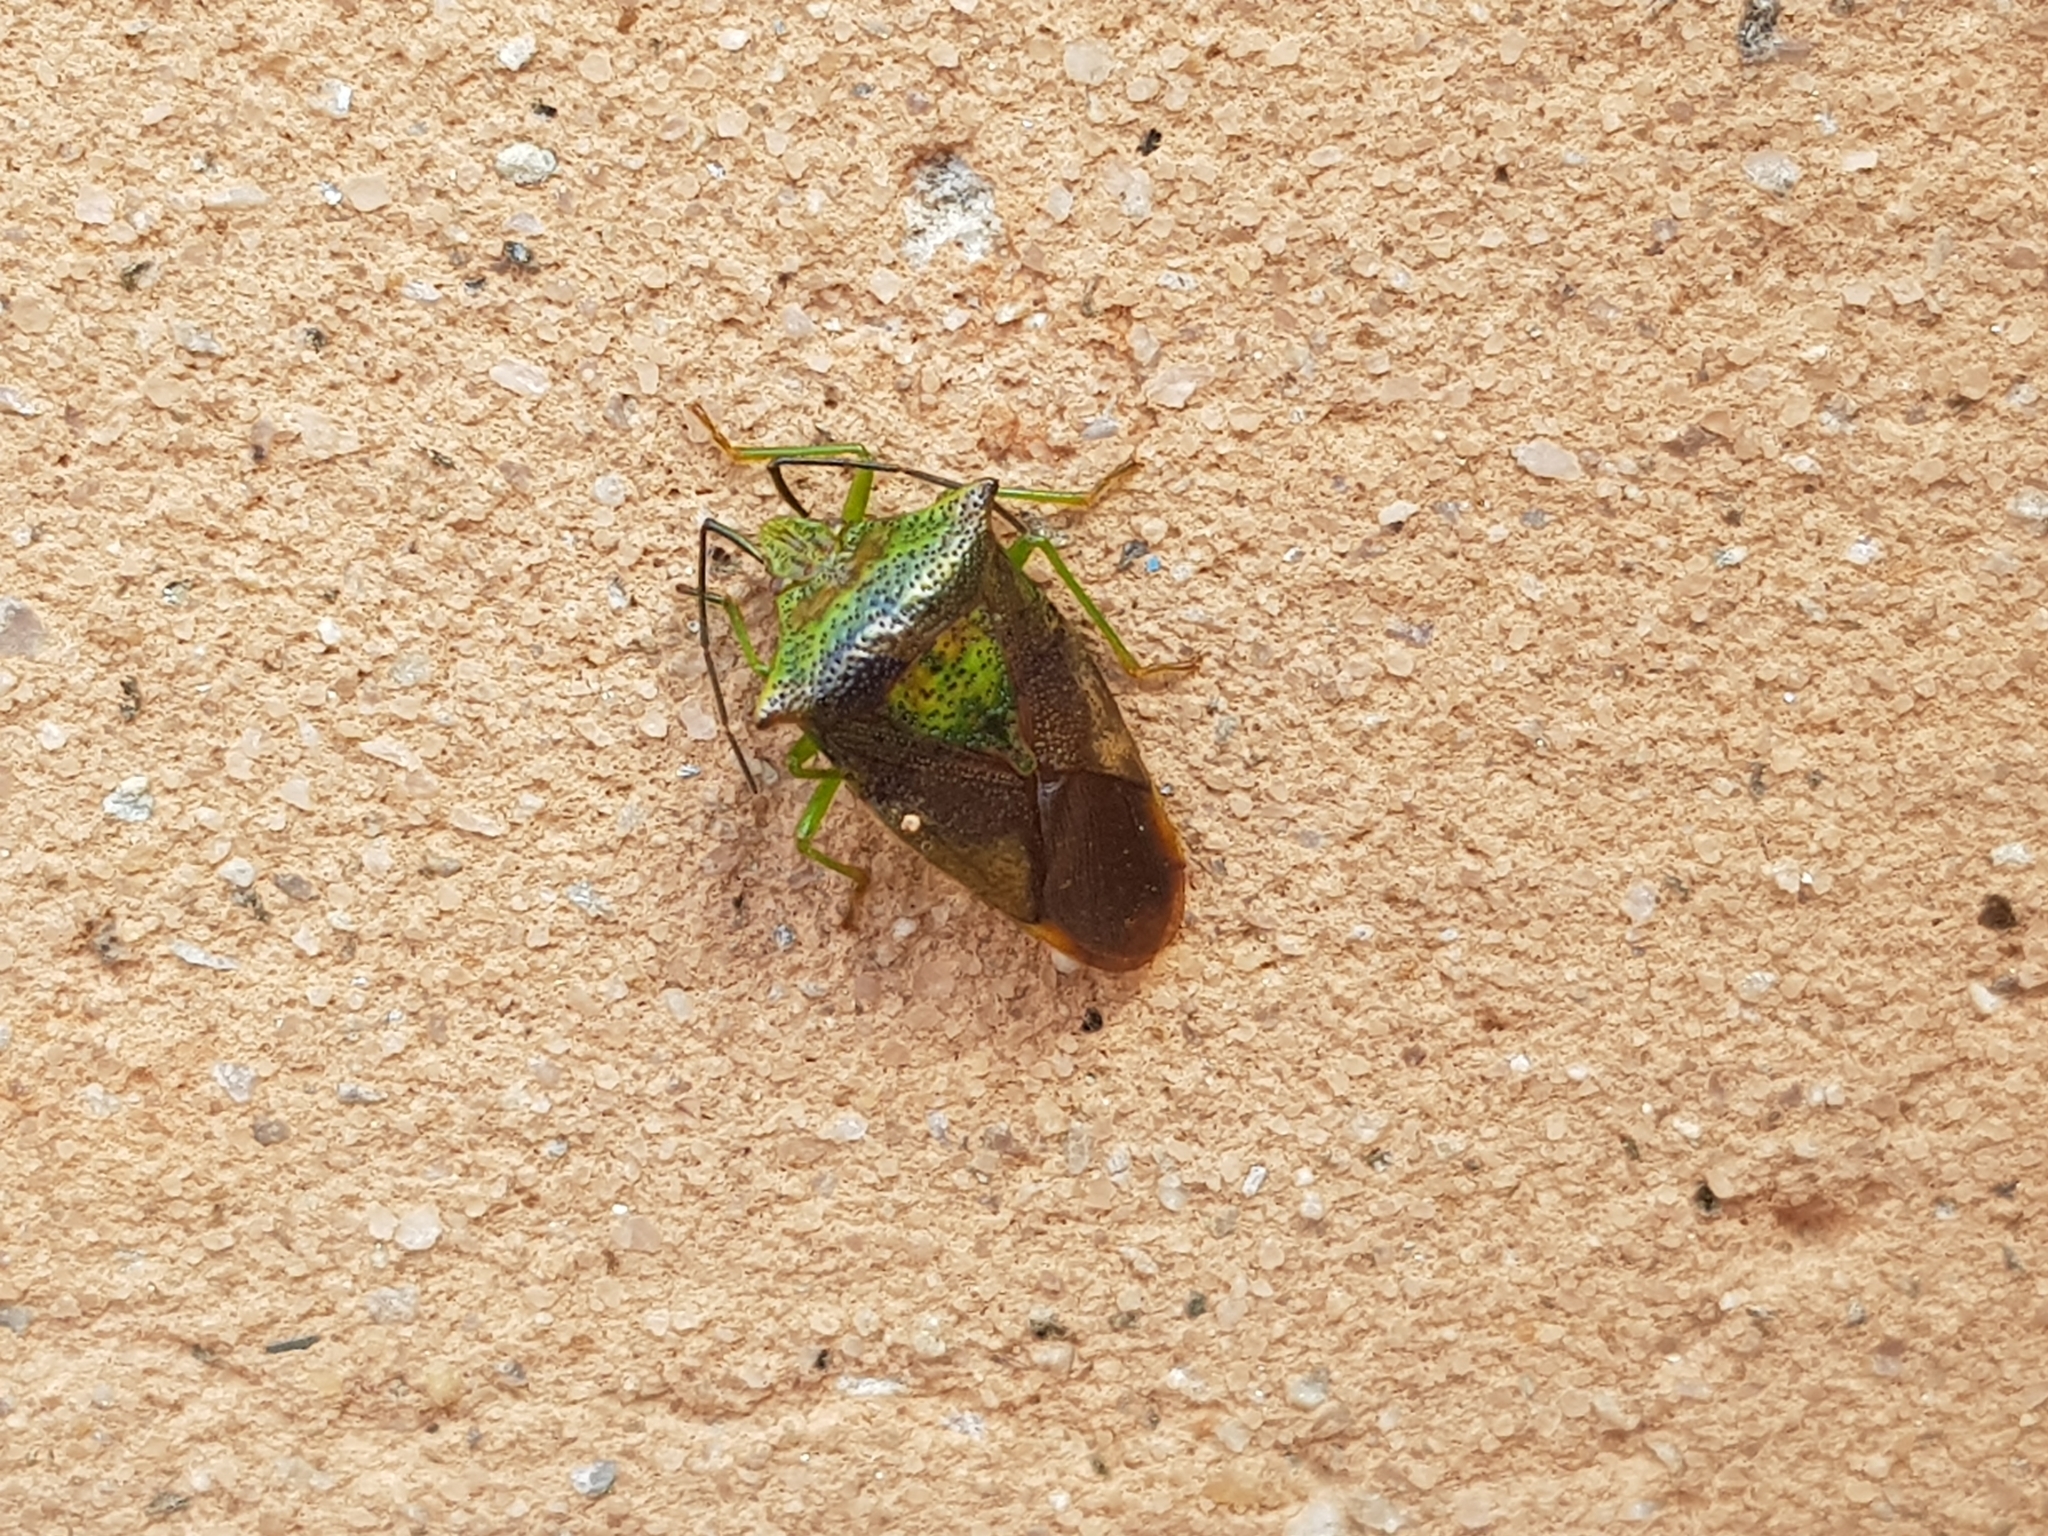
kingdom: Animalia
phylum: Arthropoda
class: Insecta
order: Hemiptera
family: Acanthosomatidae
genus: Acanthosoma
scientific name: Acanthosoma haemorrhoidale
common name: Hawthorn shieldbug
